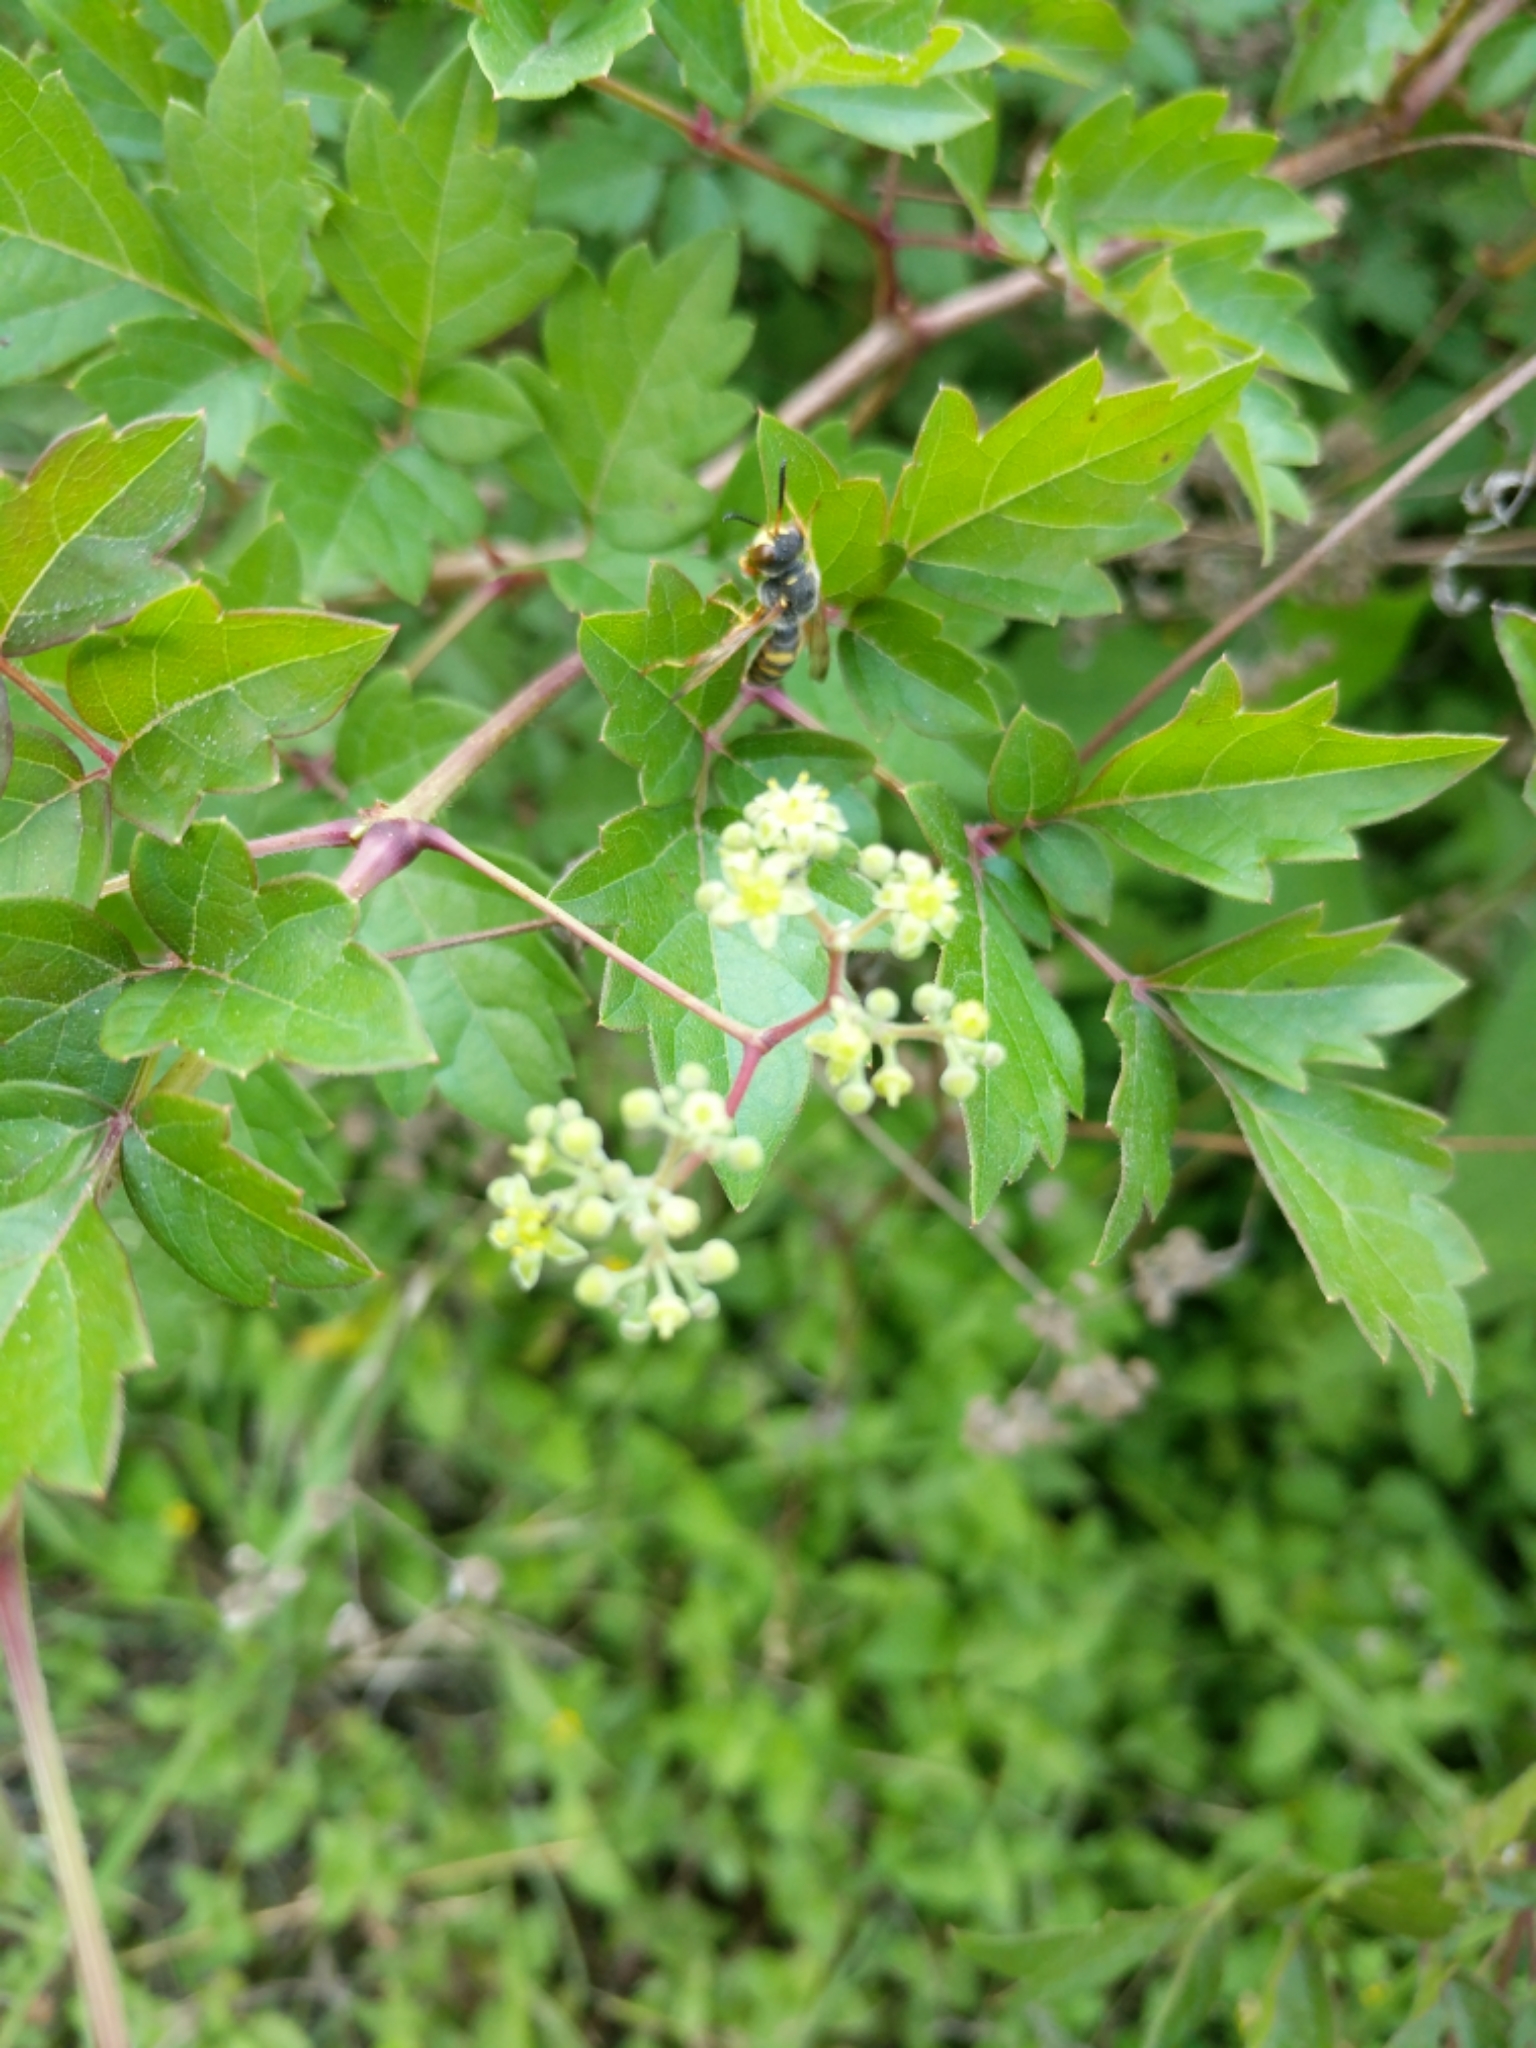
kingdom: Plantae
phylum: Tracheophyta
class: Magnoliopsida
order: Vitales
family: Vitaceae
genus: Nekemias
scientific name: Nekemias arborea
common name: Peppervine
